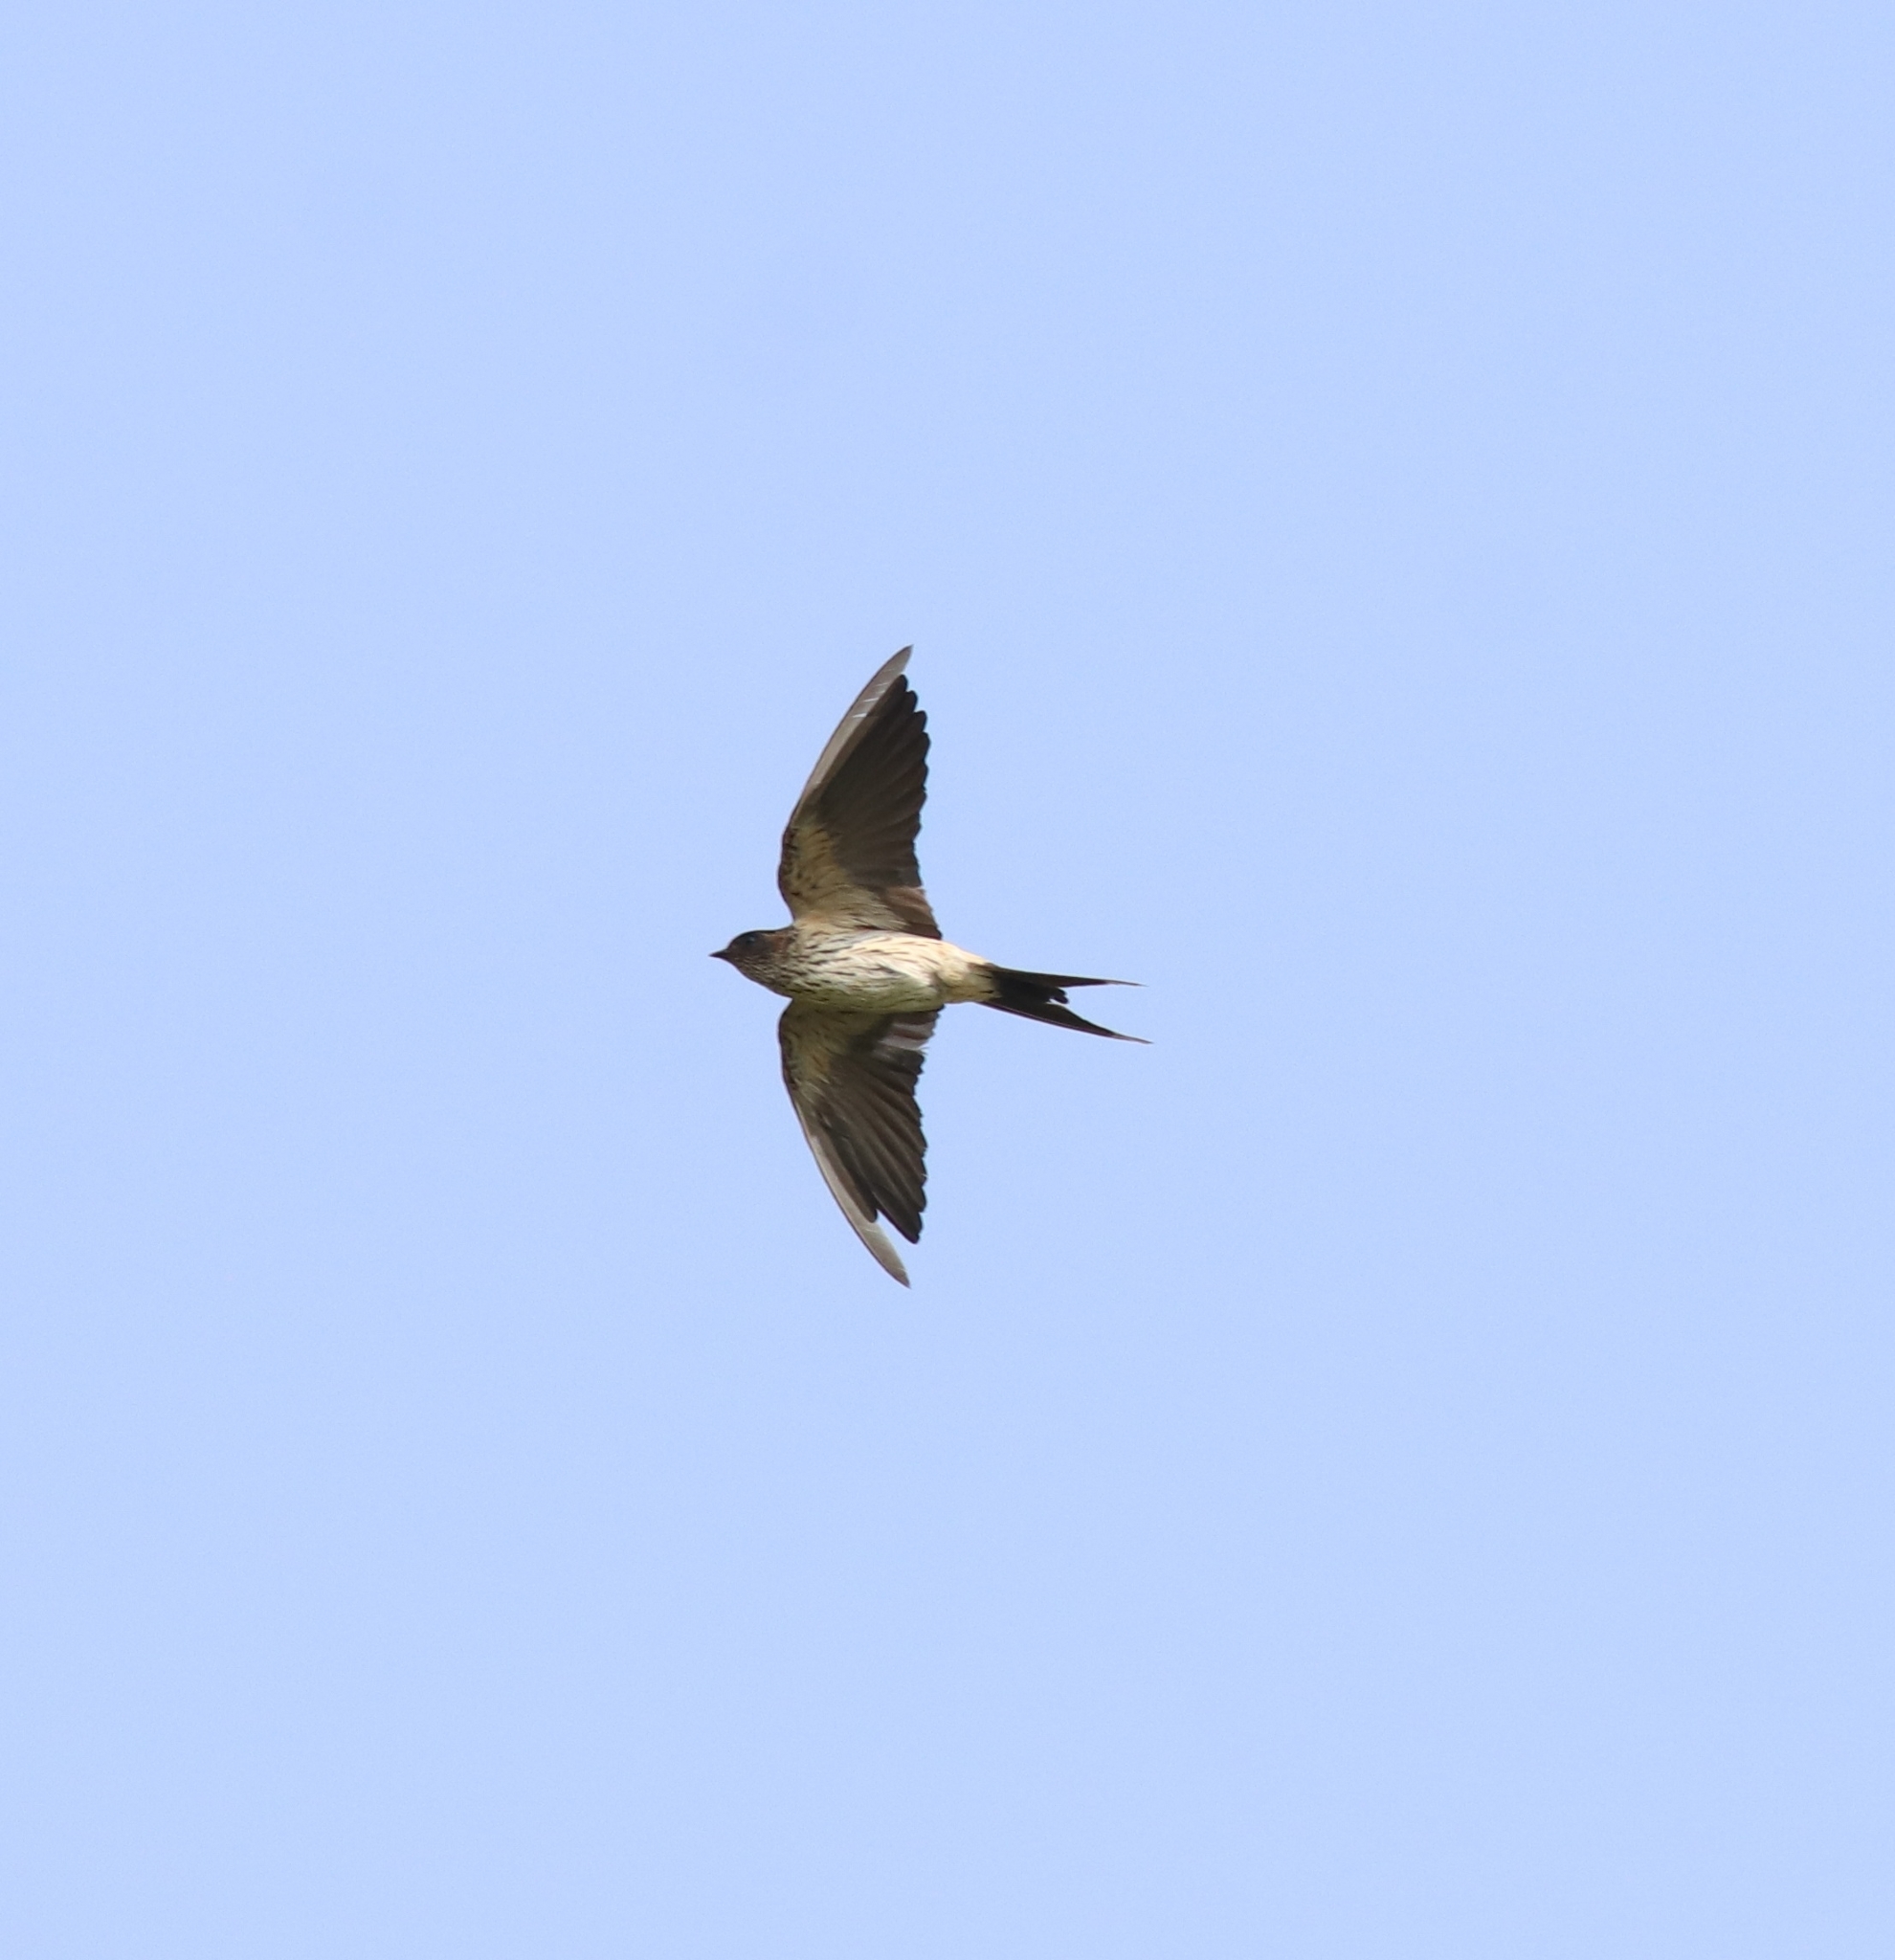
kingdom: Animalia
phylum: Chordata
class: Aves
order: Passeriformes
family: Hirundinidae
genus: Cecropis
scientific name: Cecropis daurica
